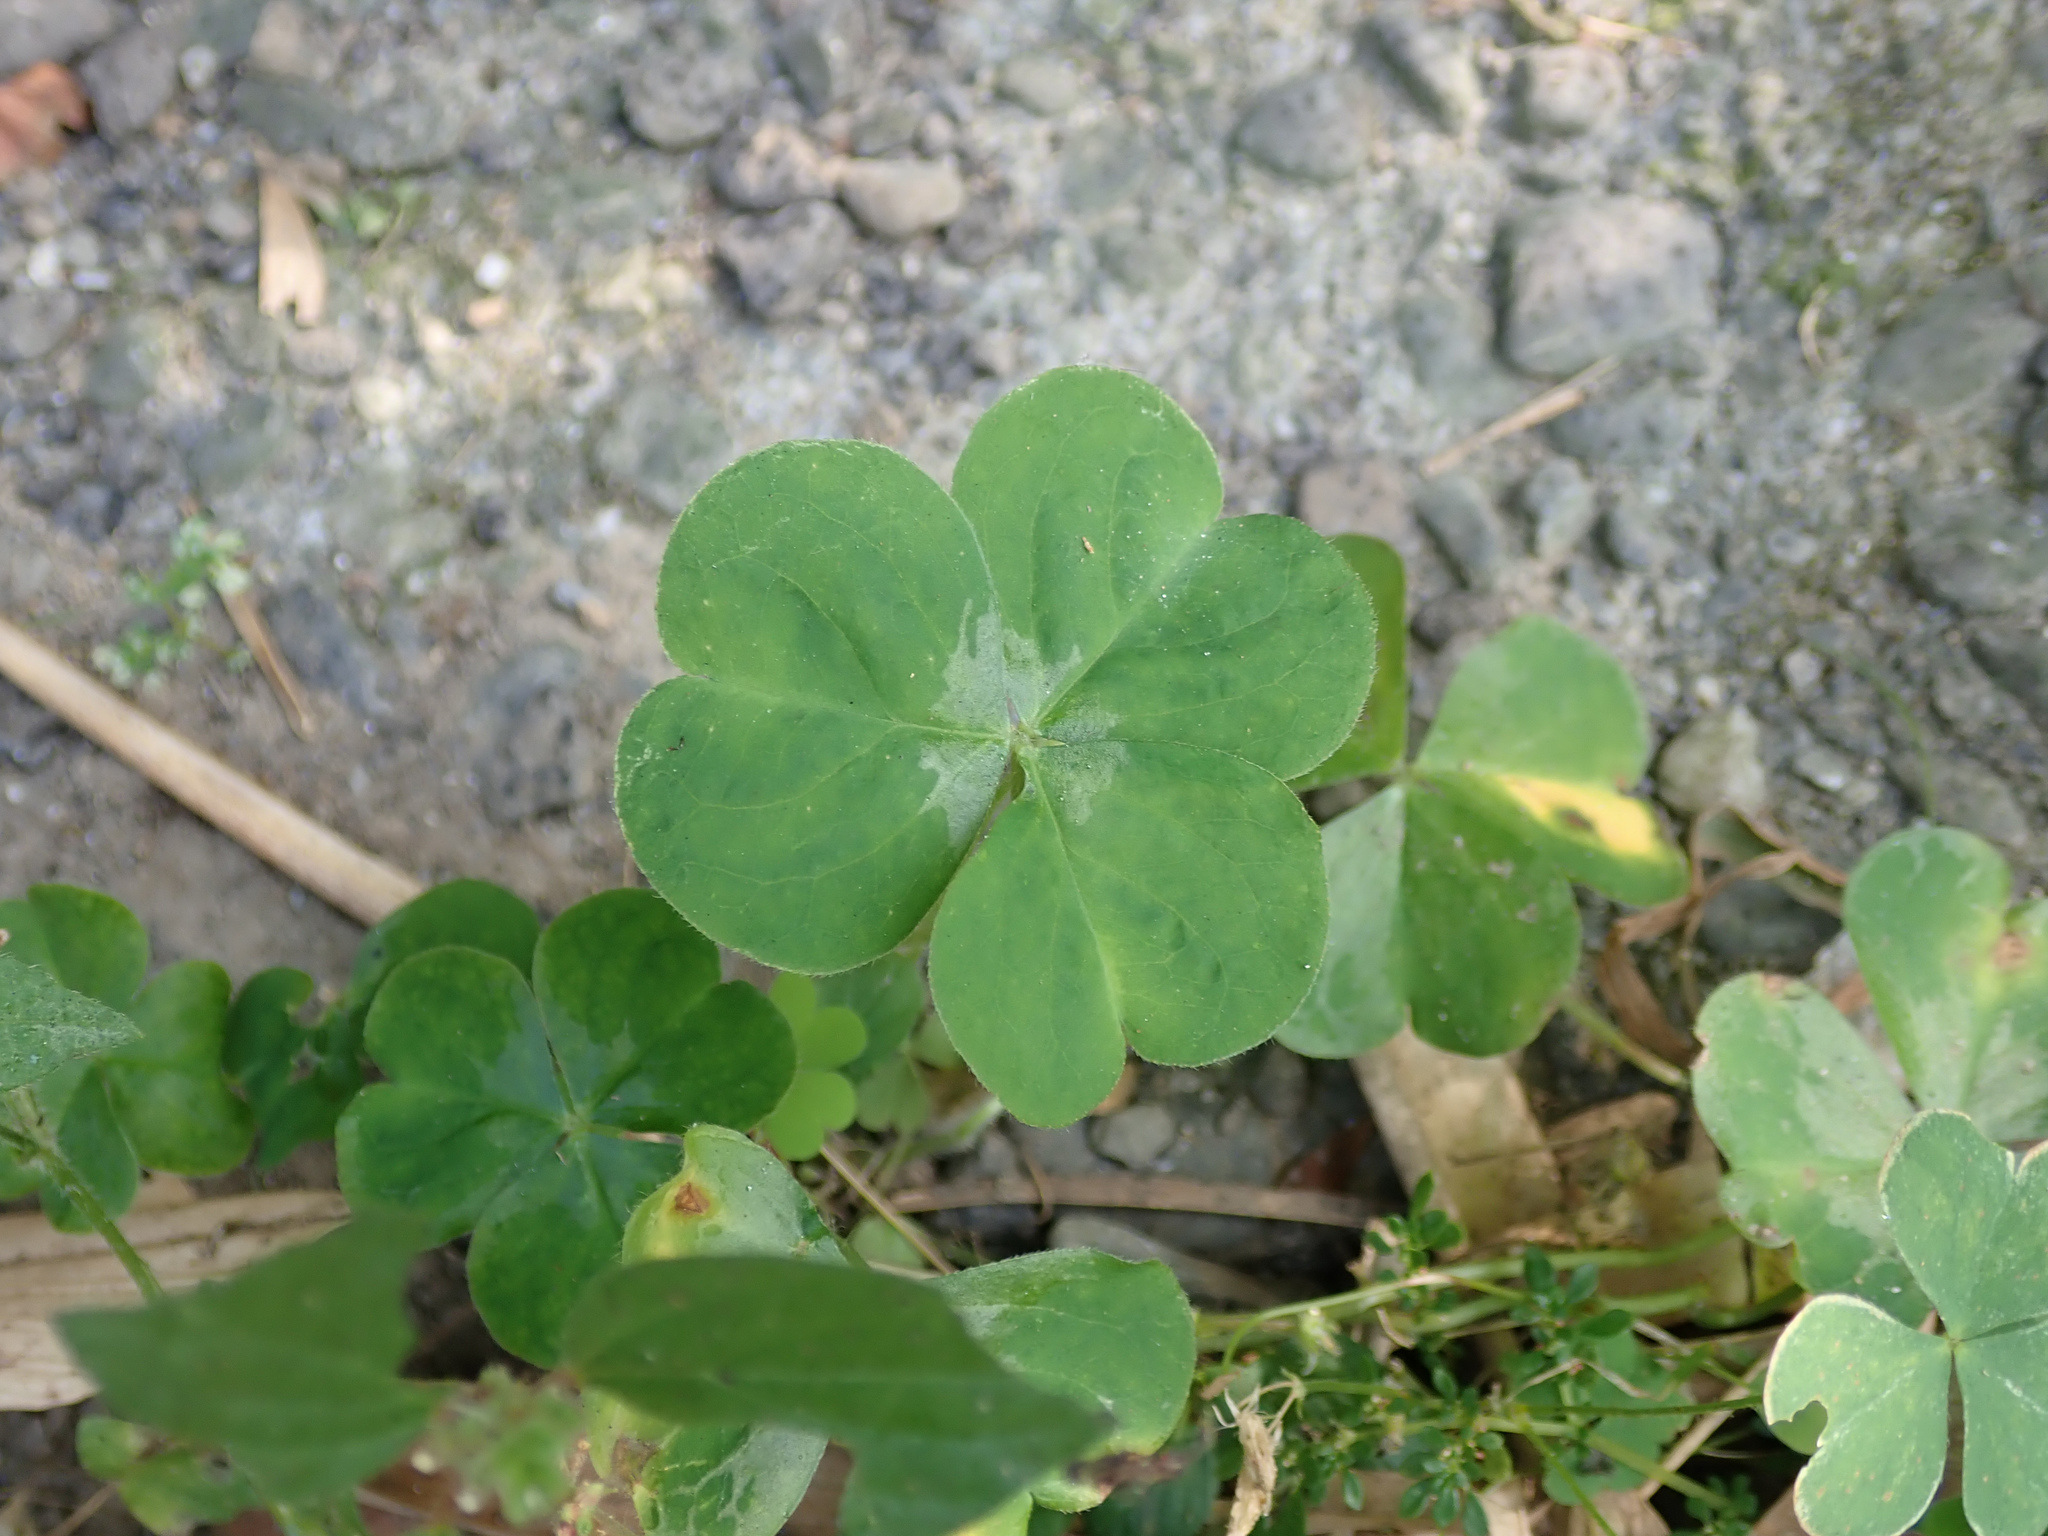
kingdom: Plantae
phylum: Tracheophyta
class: Magnoliopsida
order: Oxalidales
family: Oxalidaceae
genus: Oxalis
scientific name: Oxalis debilis
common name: Large-flowered pink-sorrel
